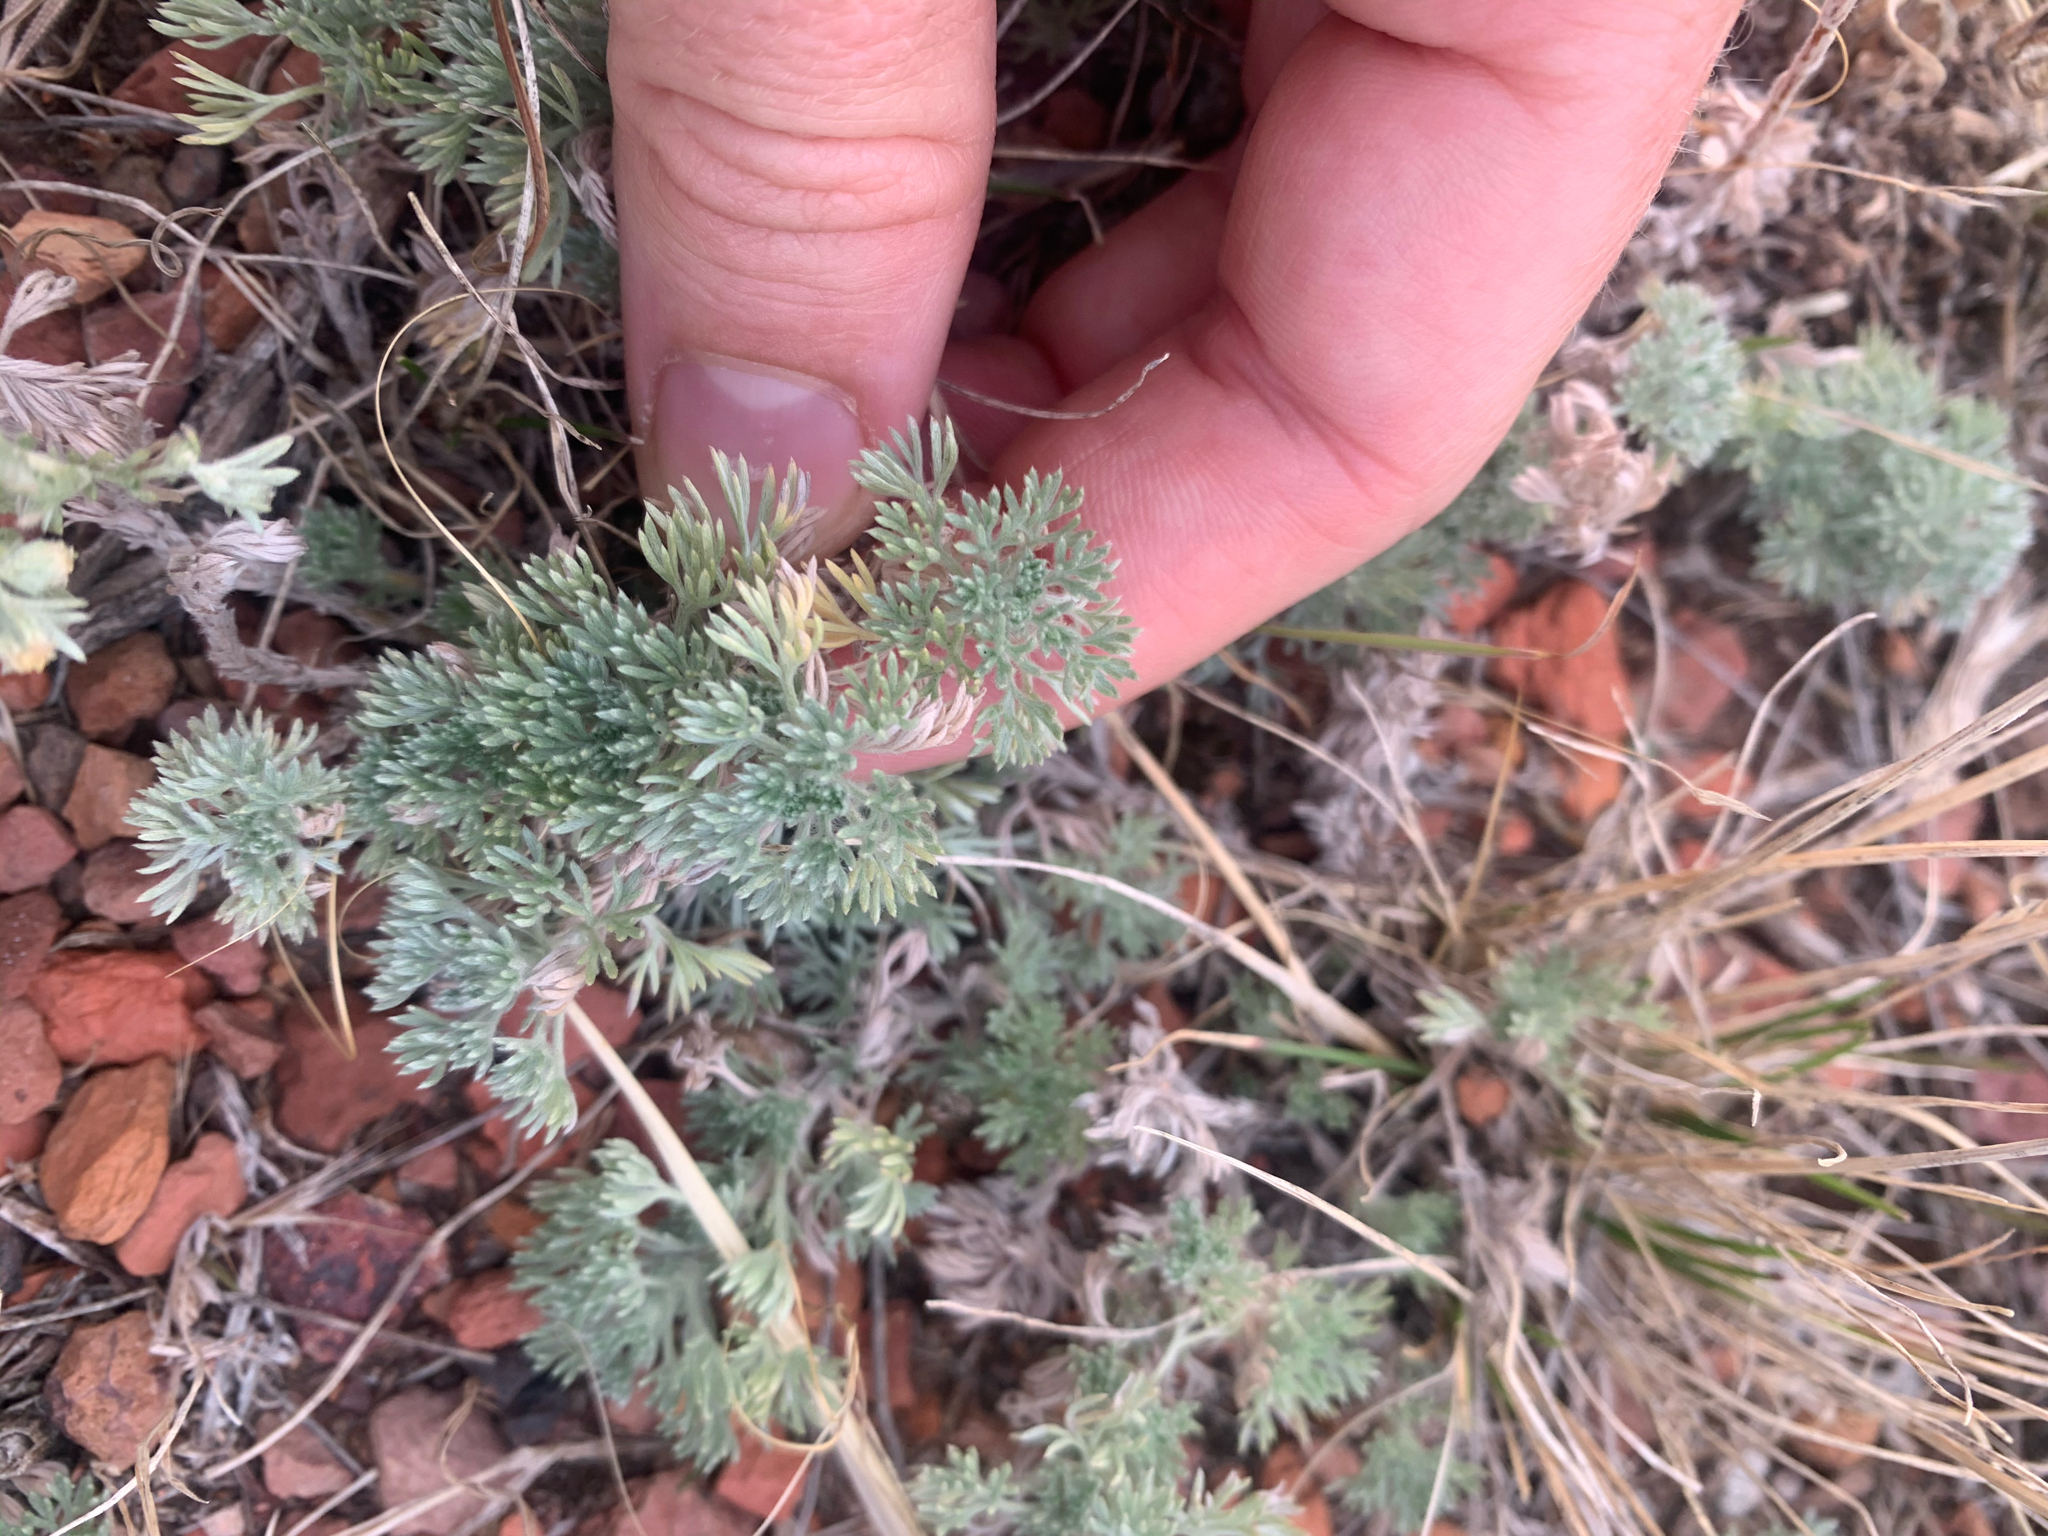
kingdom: Plantae
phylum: Tracheophyta
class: Magnoliopsida
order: Asterales
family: Asteraceae
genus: Artemisia
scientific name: Artemisia frigida
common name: Prairie sagewort
